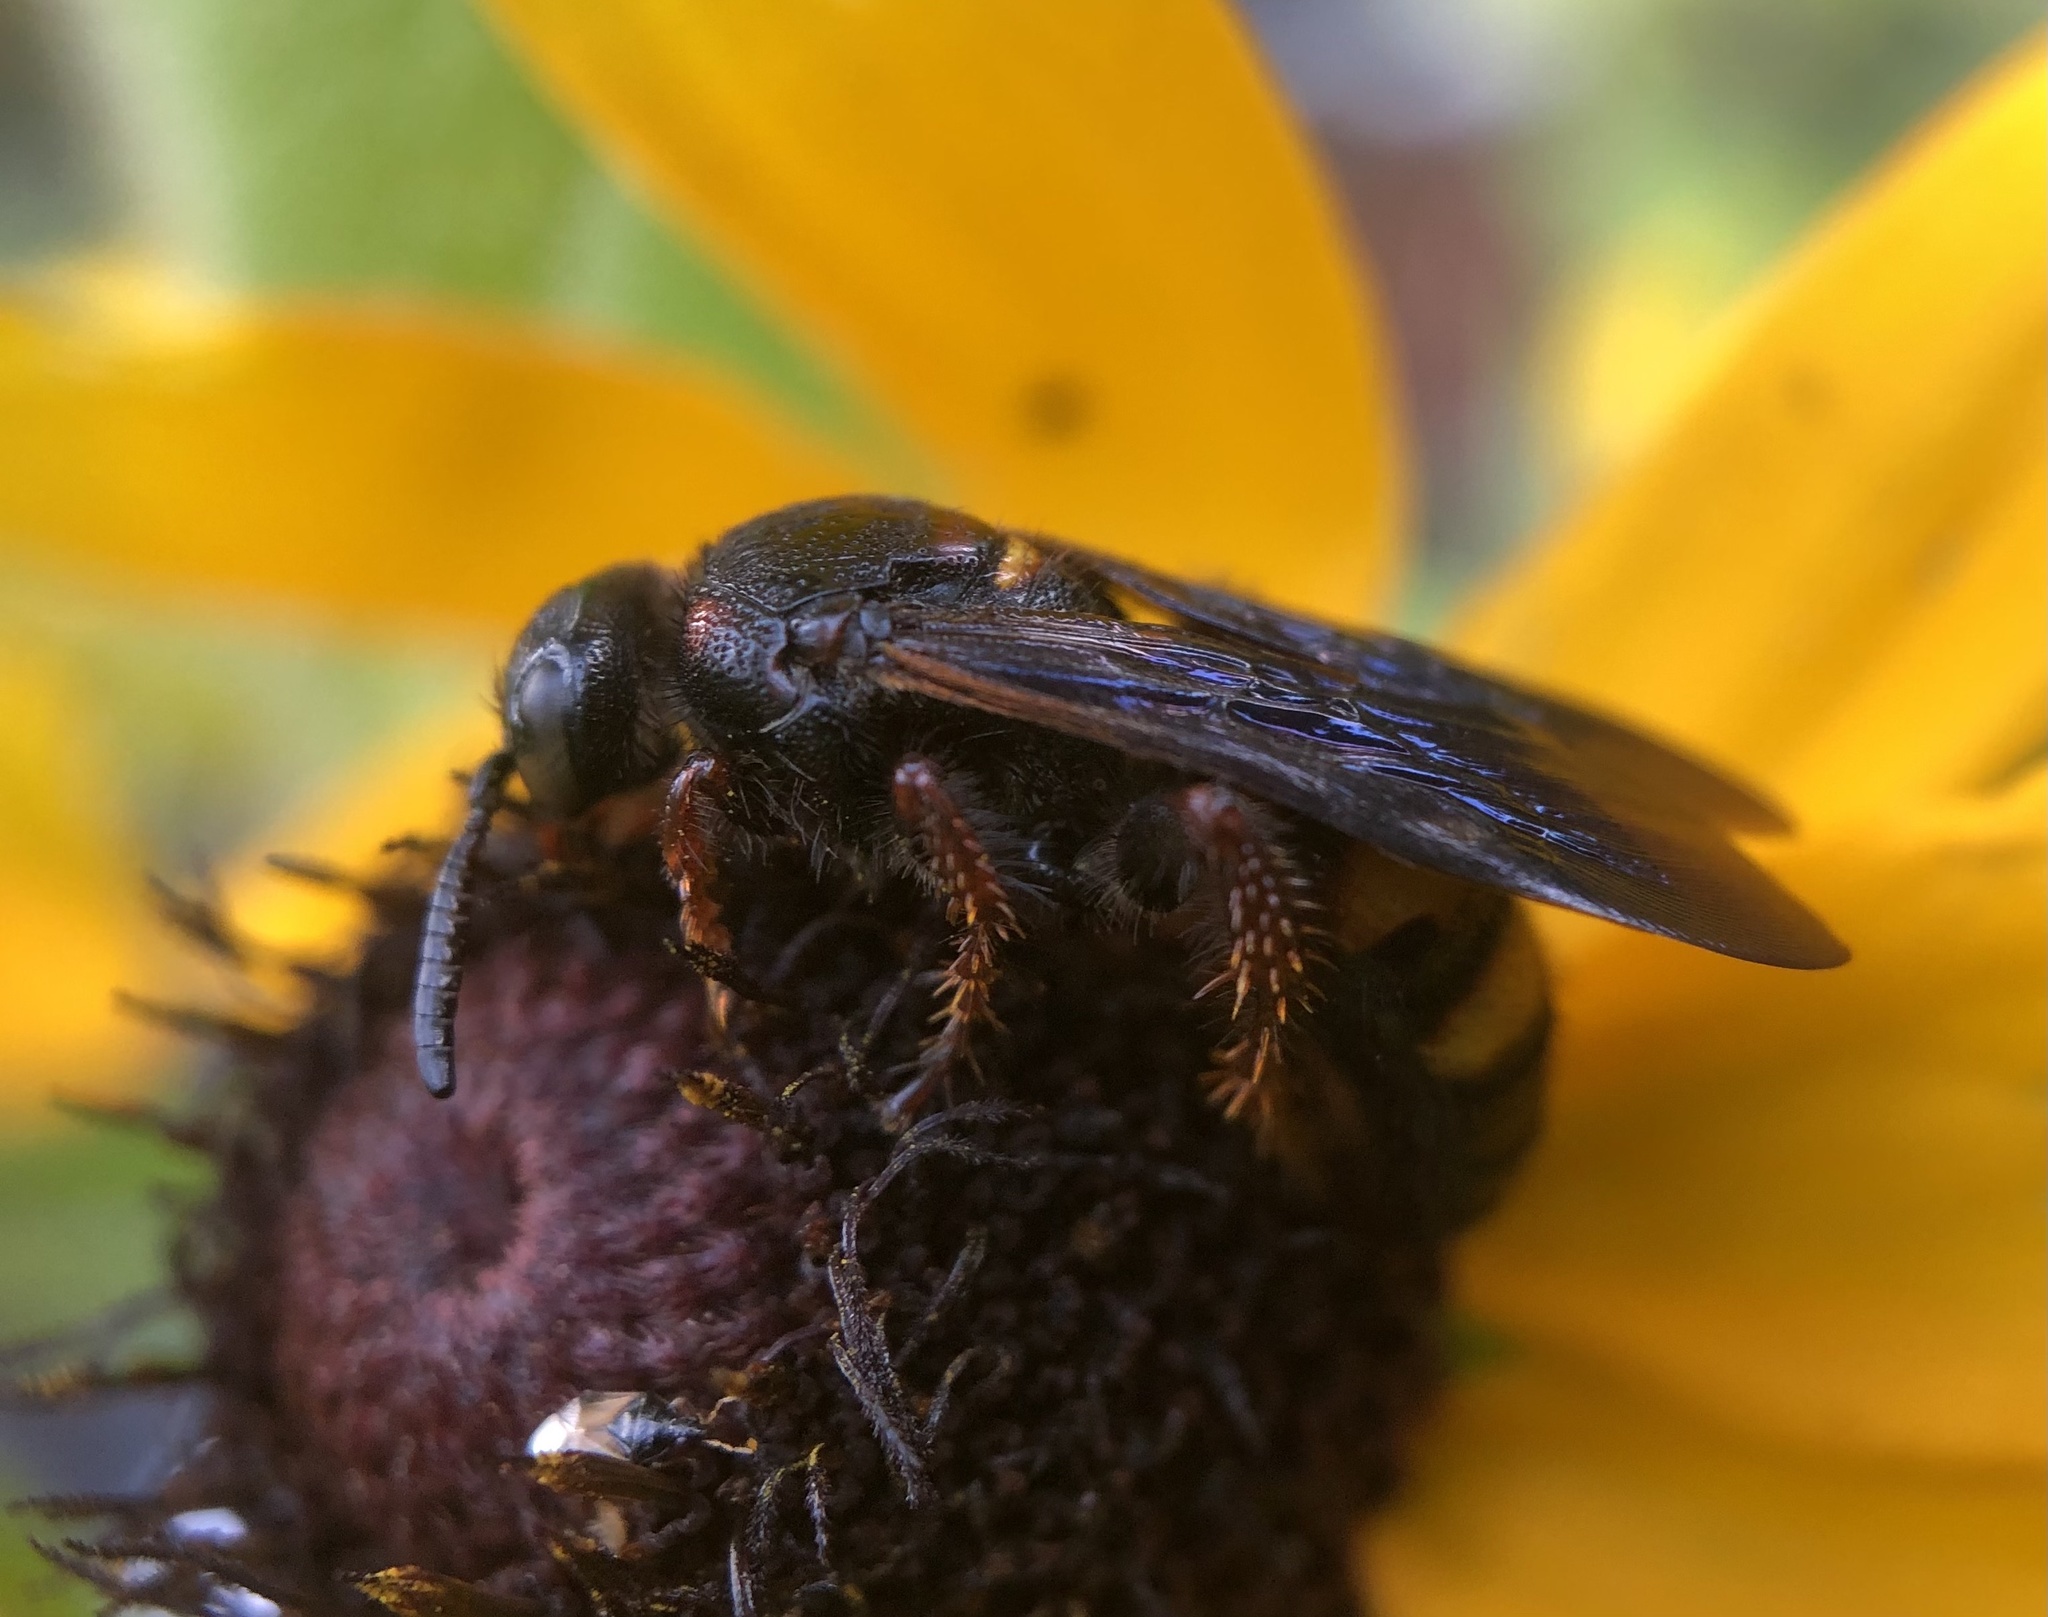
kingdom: Animalia
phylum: Arthropoda
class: Insecta
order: Hymenoptera
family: Scoliidae
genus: Scolia
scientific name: Scolia nobilitata
